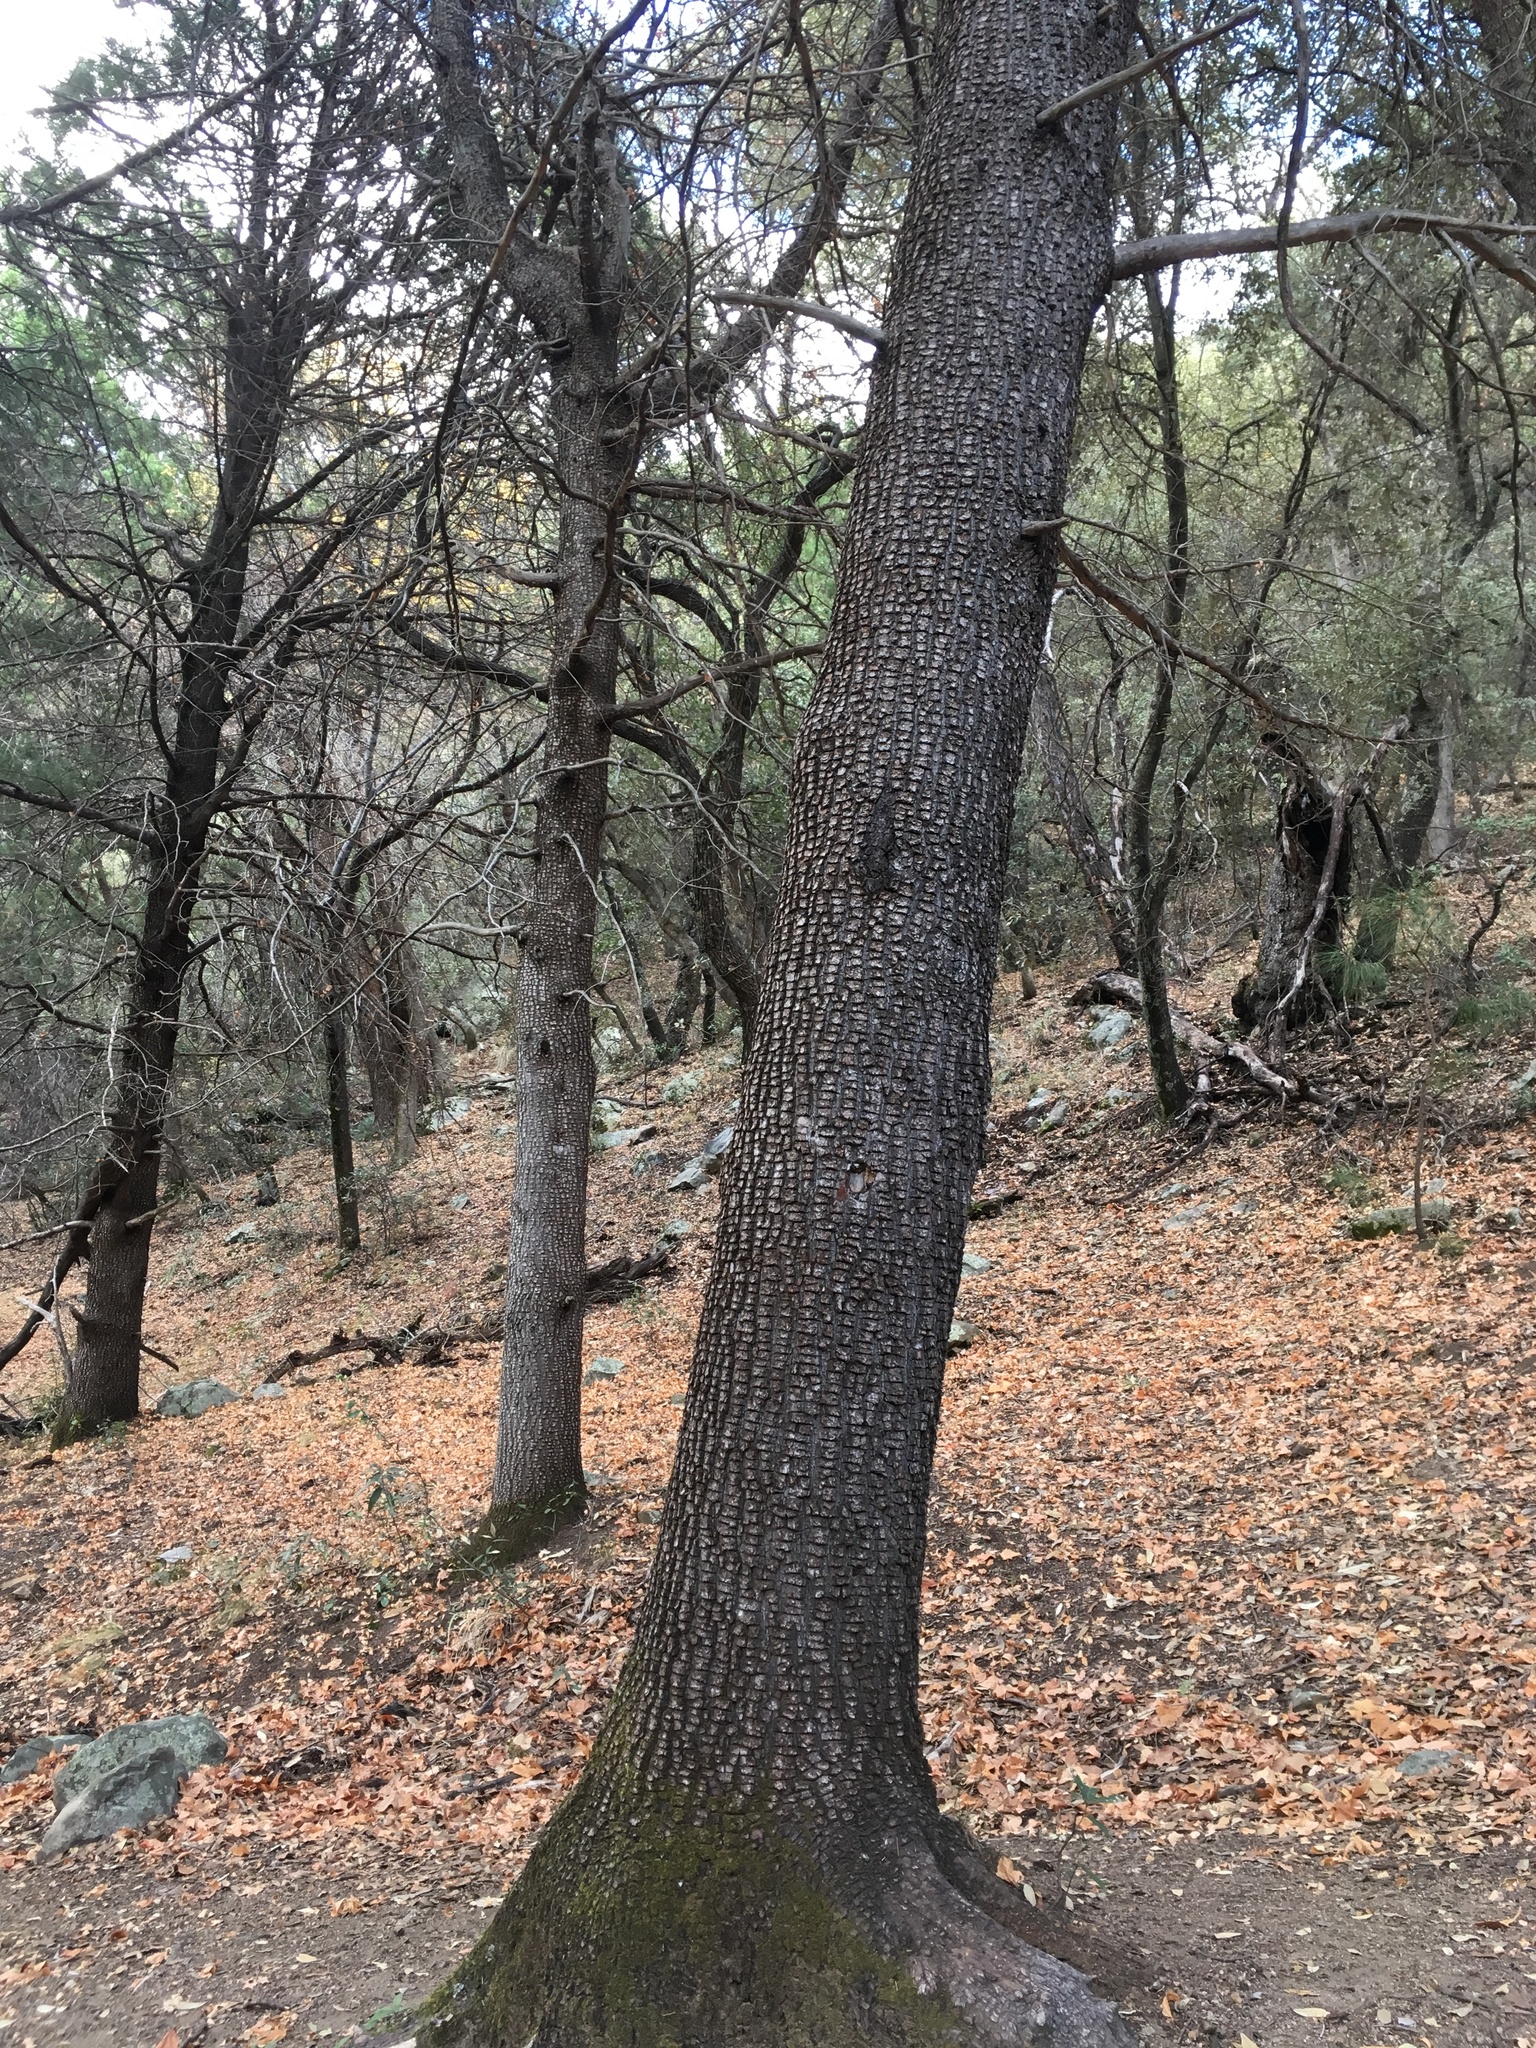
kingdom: Plantae
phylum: Tracheophyta
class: Pinopsida
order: Pinales
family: Cupressaceae
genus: Juniperus
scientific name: Juniperus deppeana
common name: Alligator juniper
